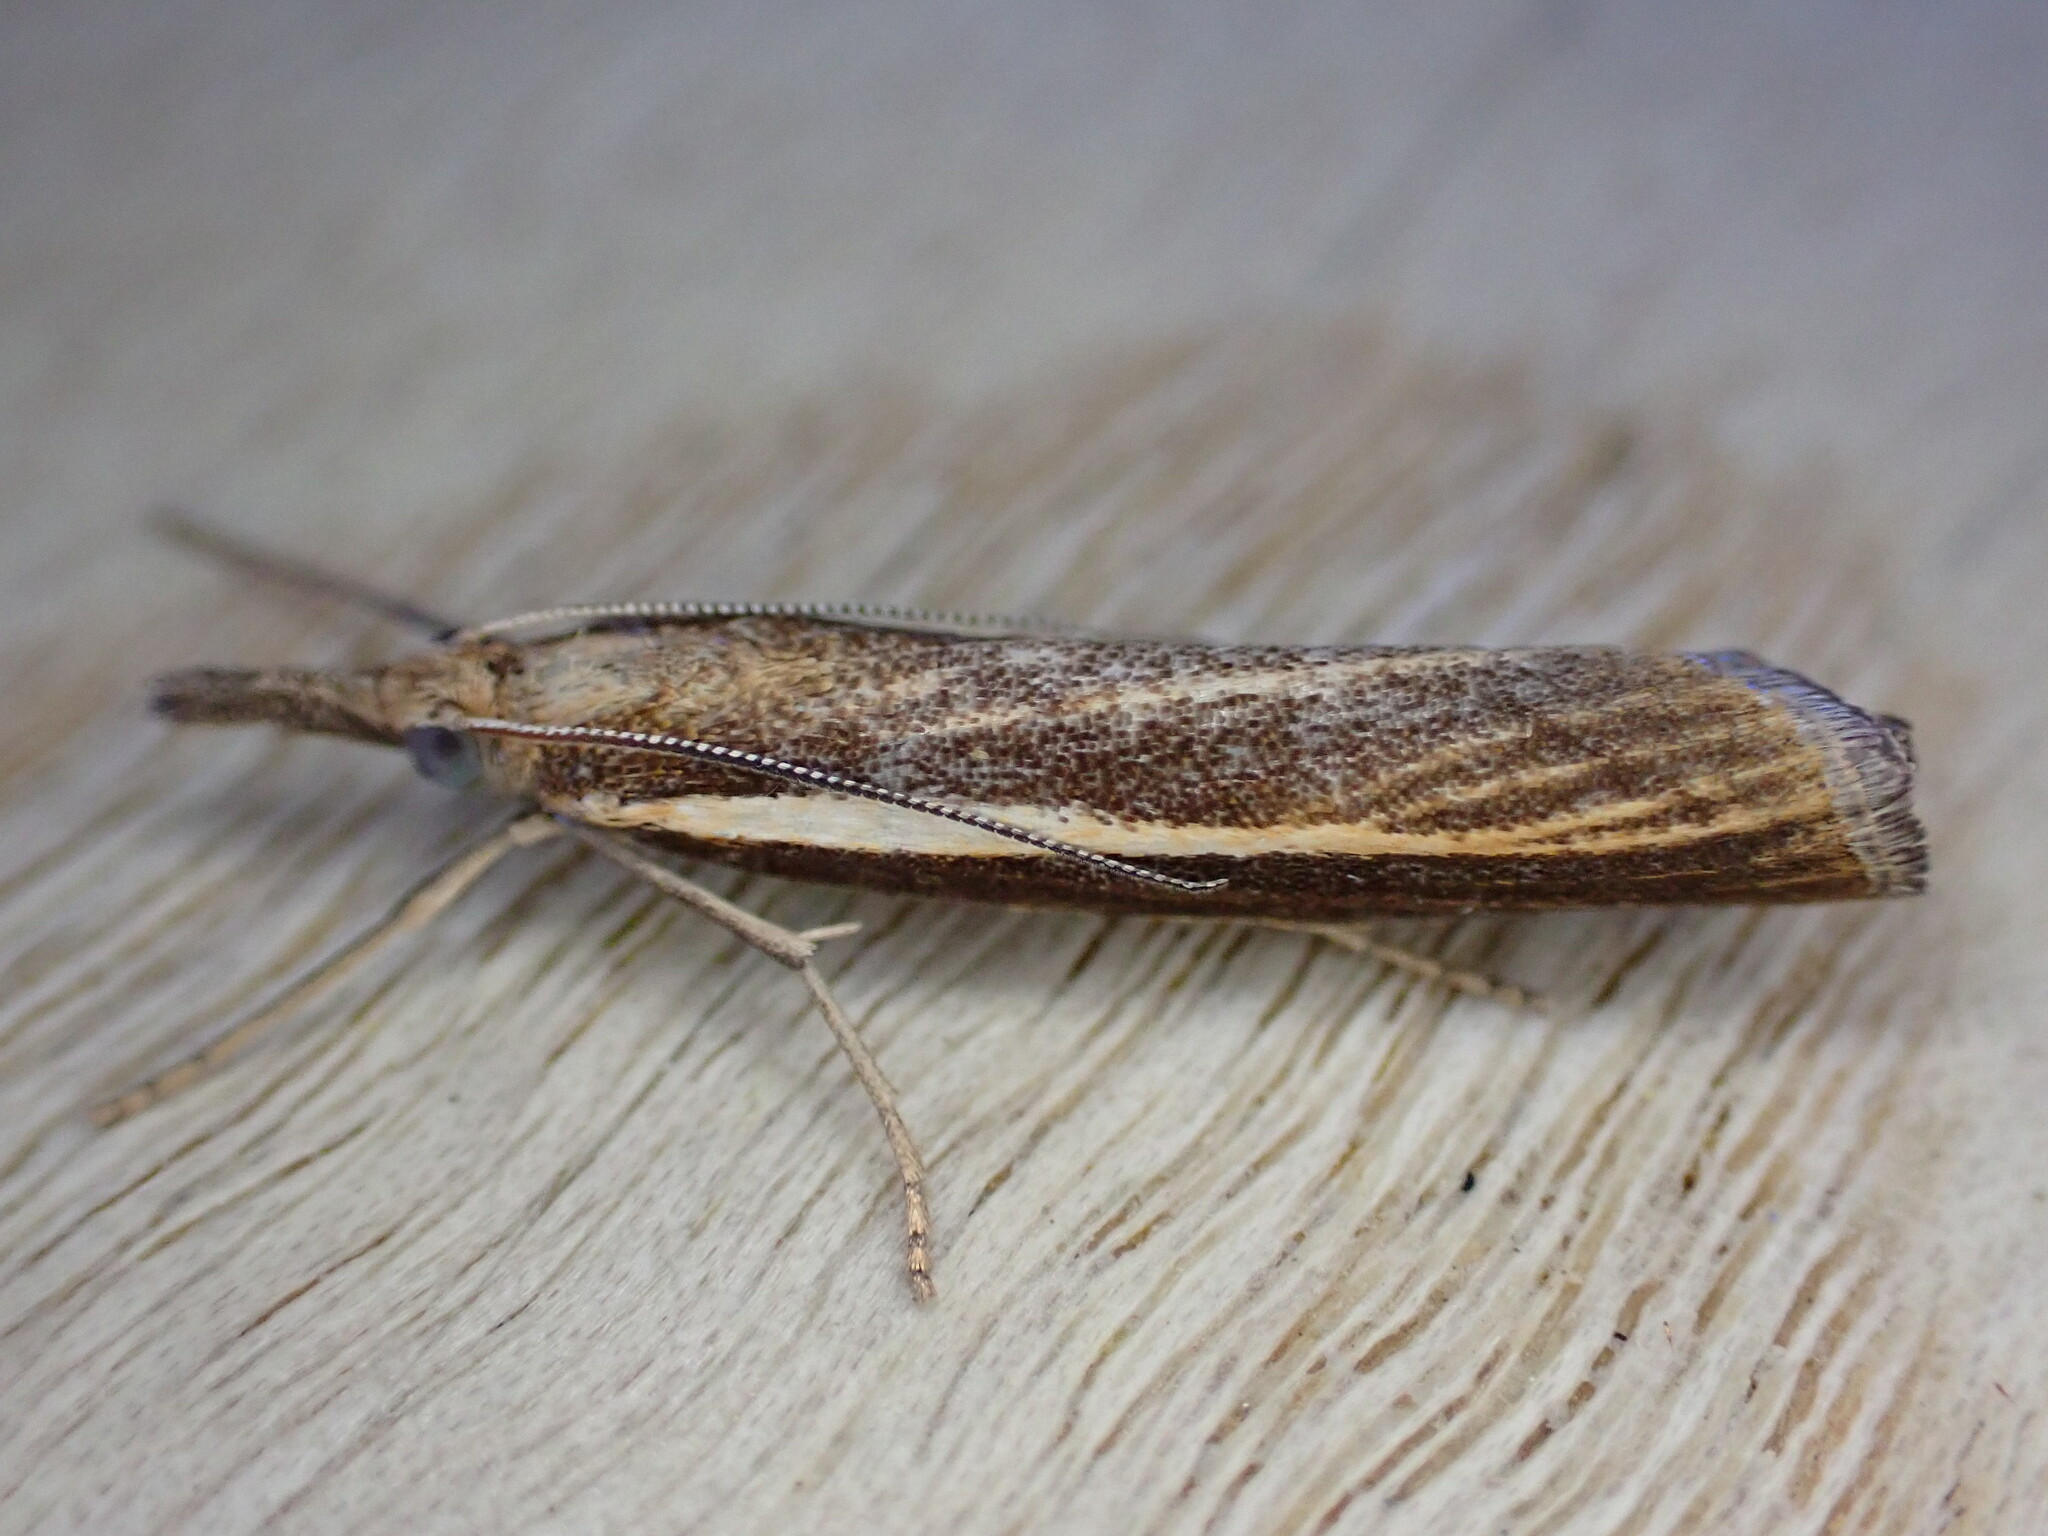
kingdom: Animalia
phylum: Arthropoda
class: Insecta
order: Lepidoptera
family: Crambidae
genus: Agriphila
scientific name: Agriphila tristellus
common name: Common grass-veneer
